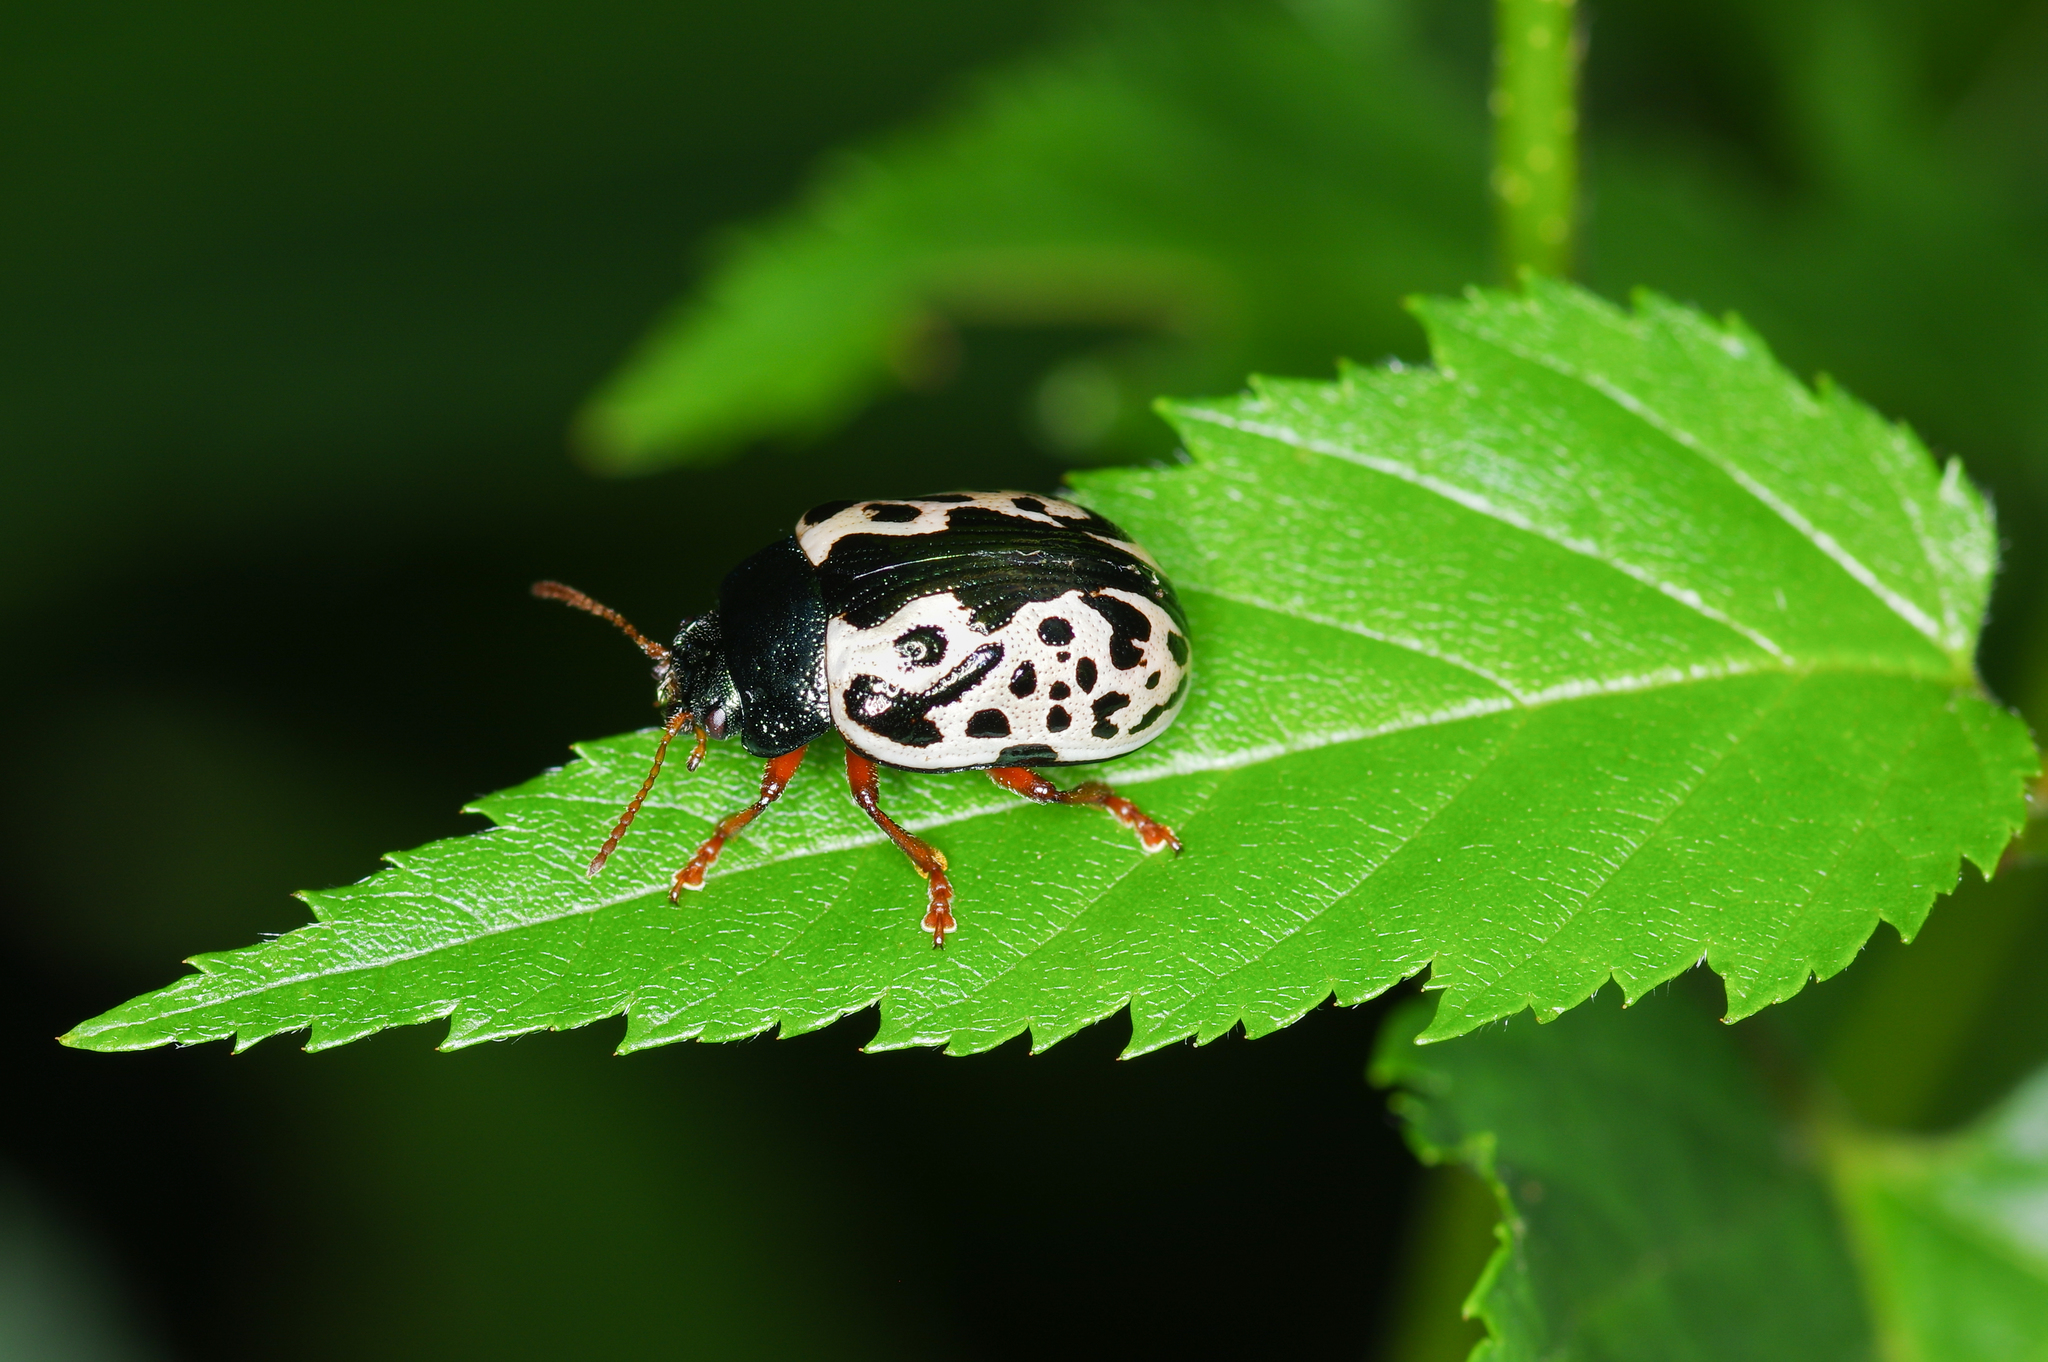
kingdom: Animalia
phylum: Arthropoda
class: Insecta
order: Coleoptera
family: Chrysomelidae
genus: Calligrapha
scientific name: Calligrapha ignota
